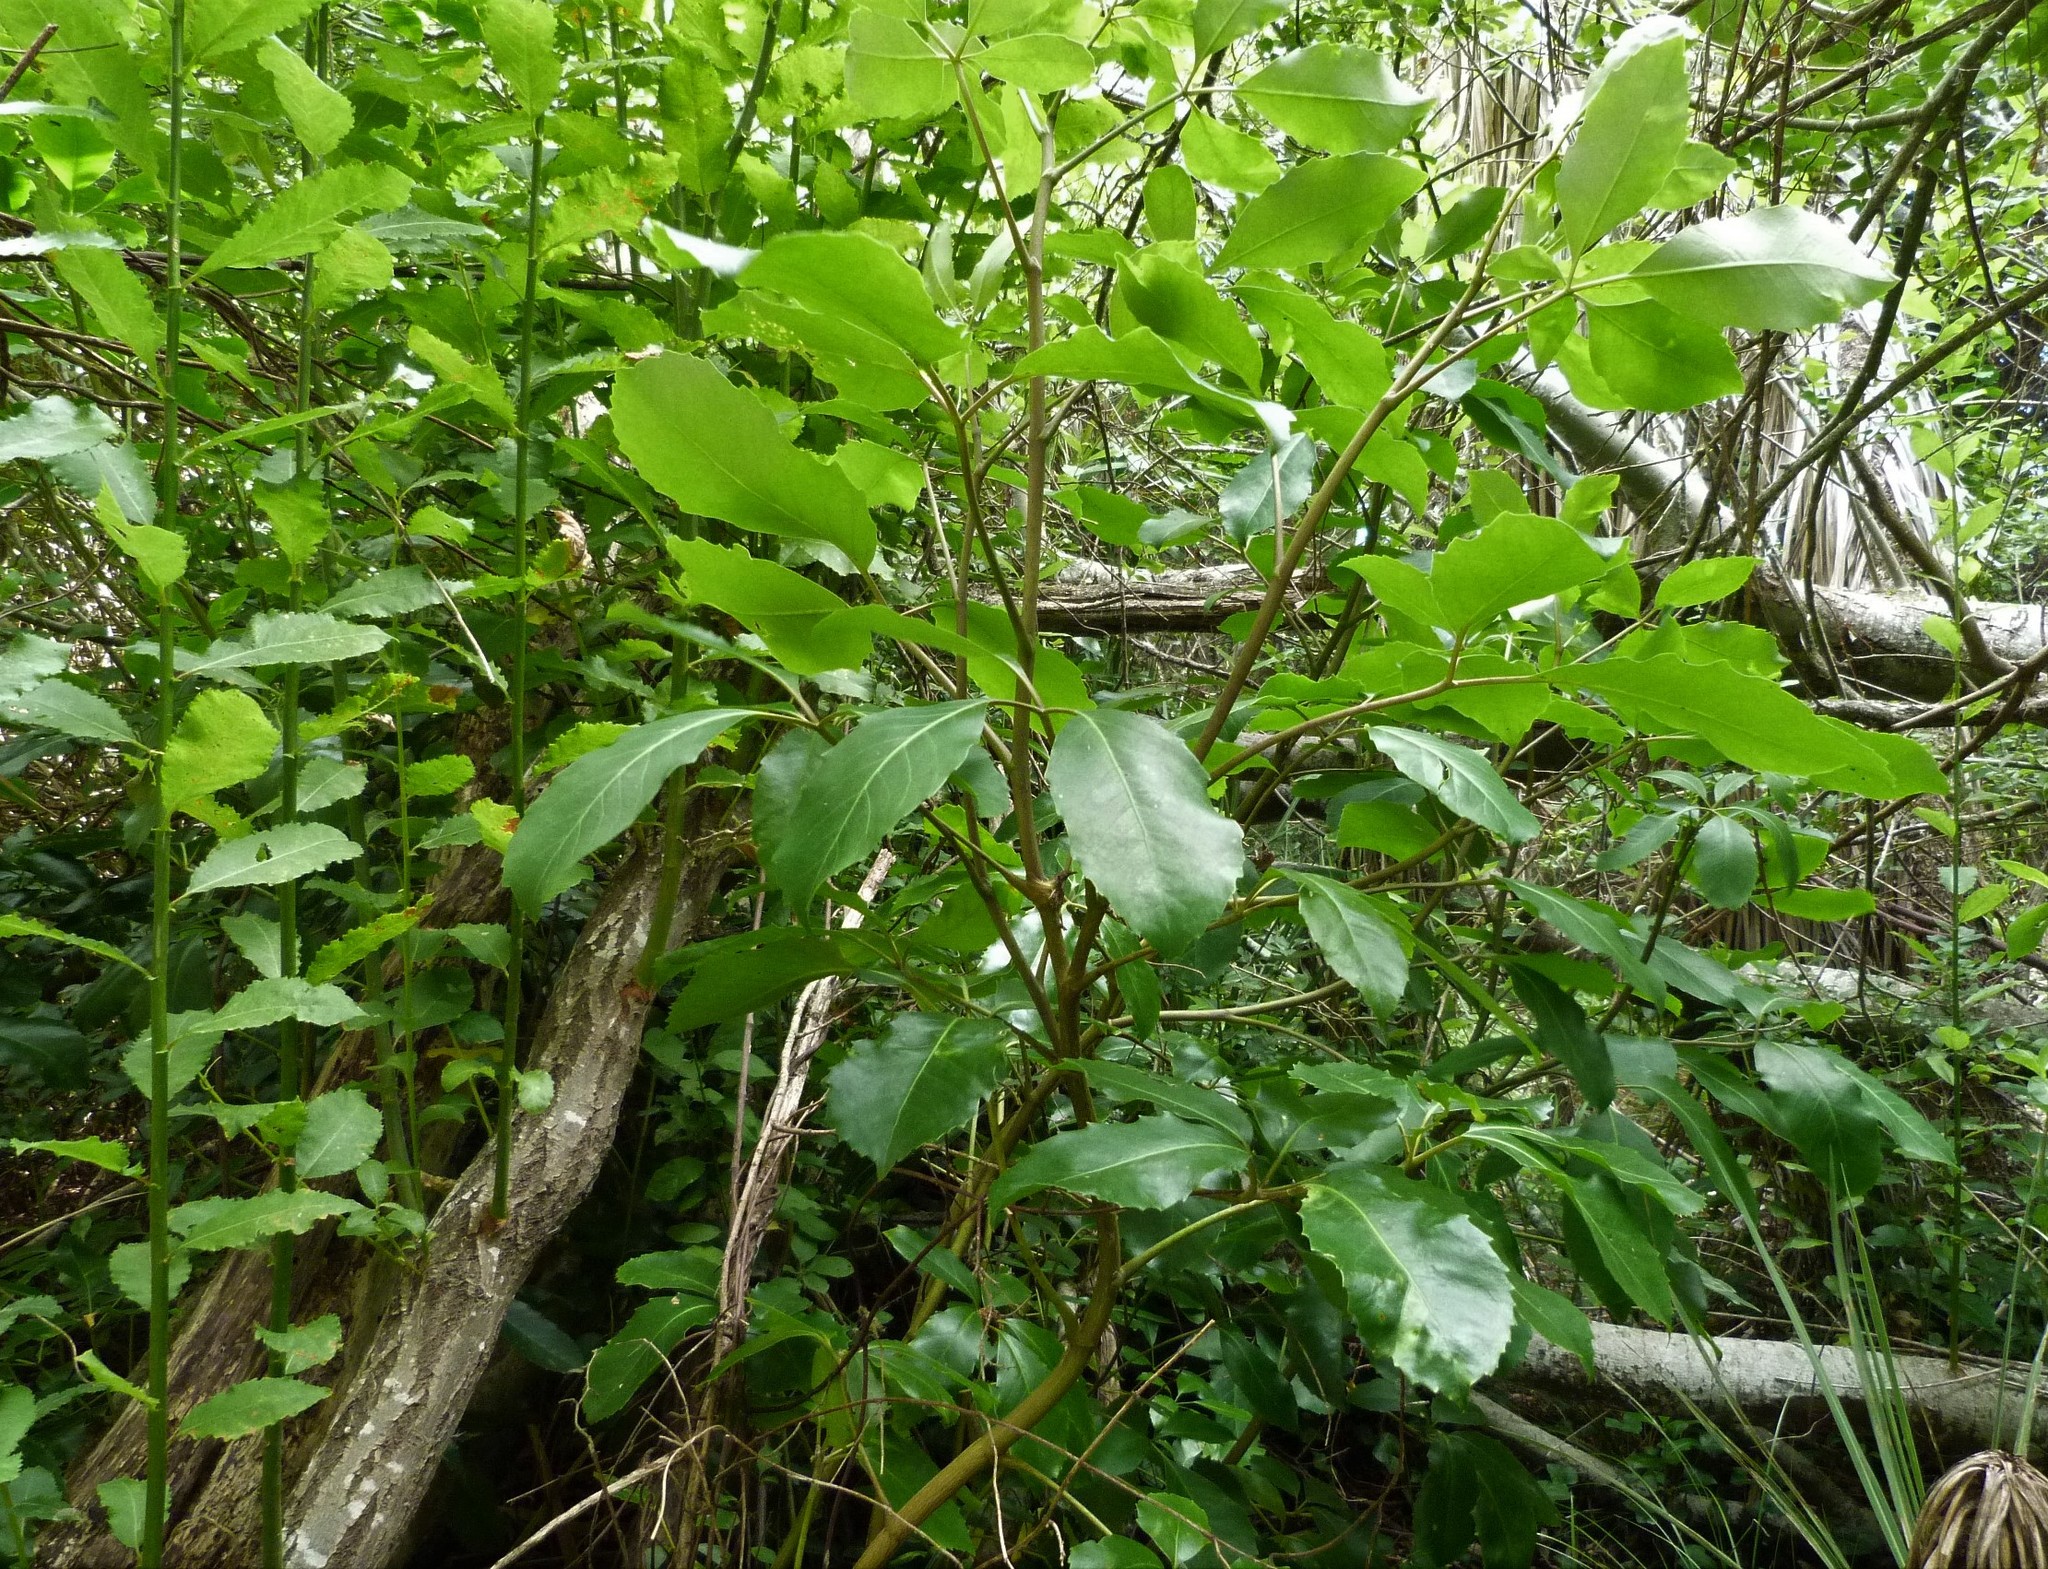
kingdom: Plantae
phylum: Tracheophyta
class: Magnoliopsida
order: Apiales
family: Araliaceae
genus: Neopanax
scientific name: Neopanax arboreus
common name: Five-fingers
